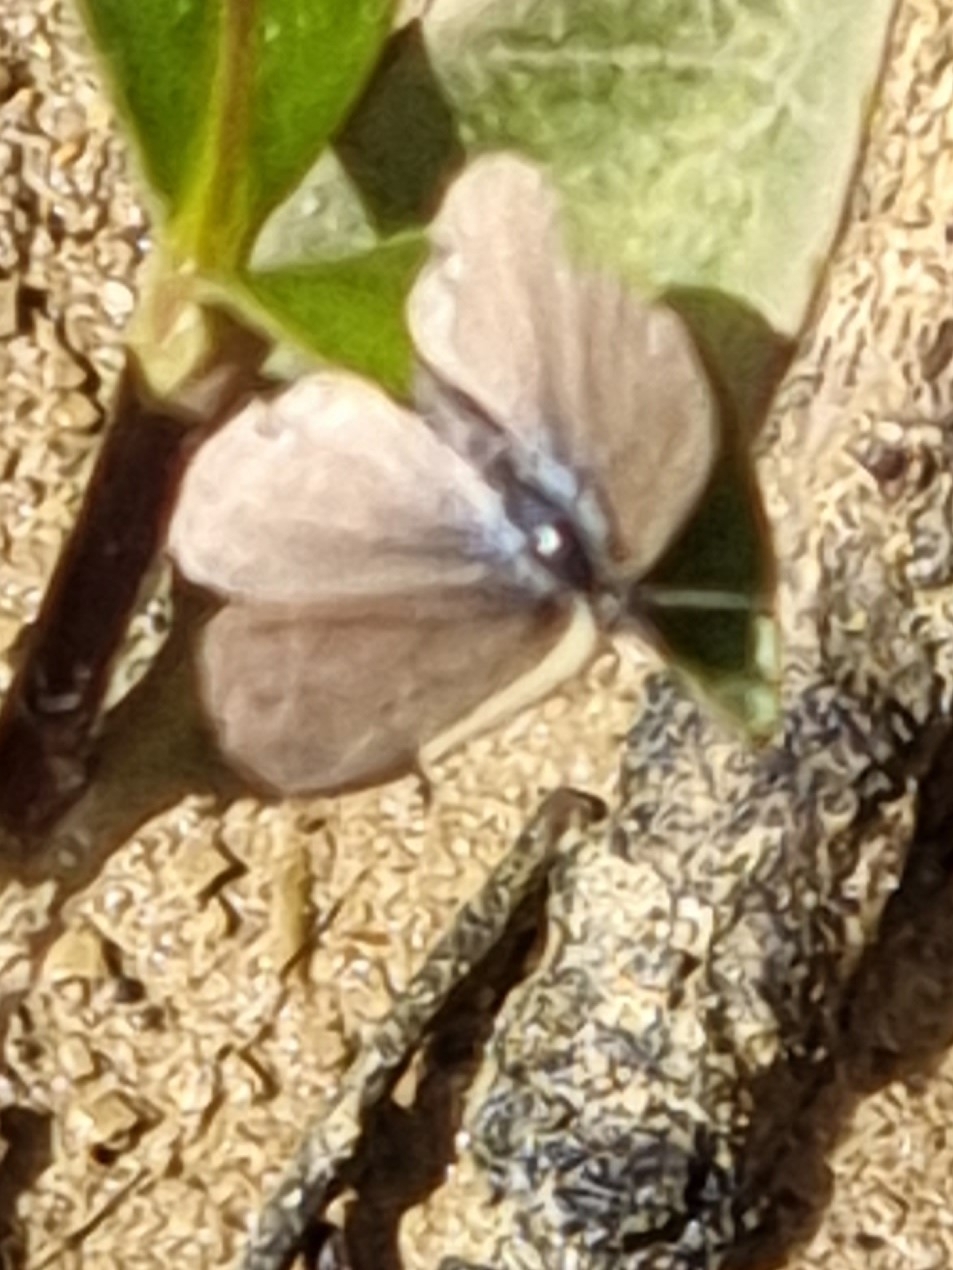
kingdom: Animalia
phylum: Arthropoda
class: Insecta
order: Lepidoptera
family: Lycaenidae
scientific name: Lycaenidae
